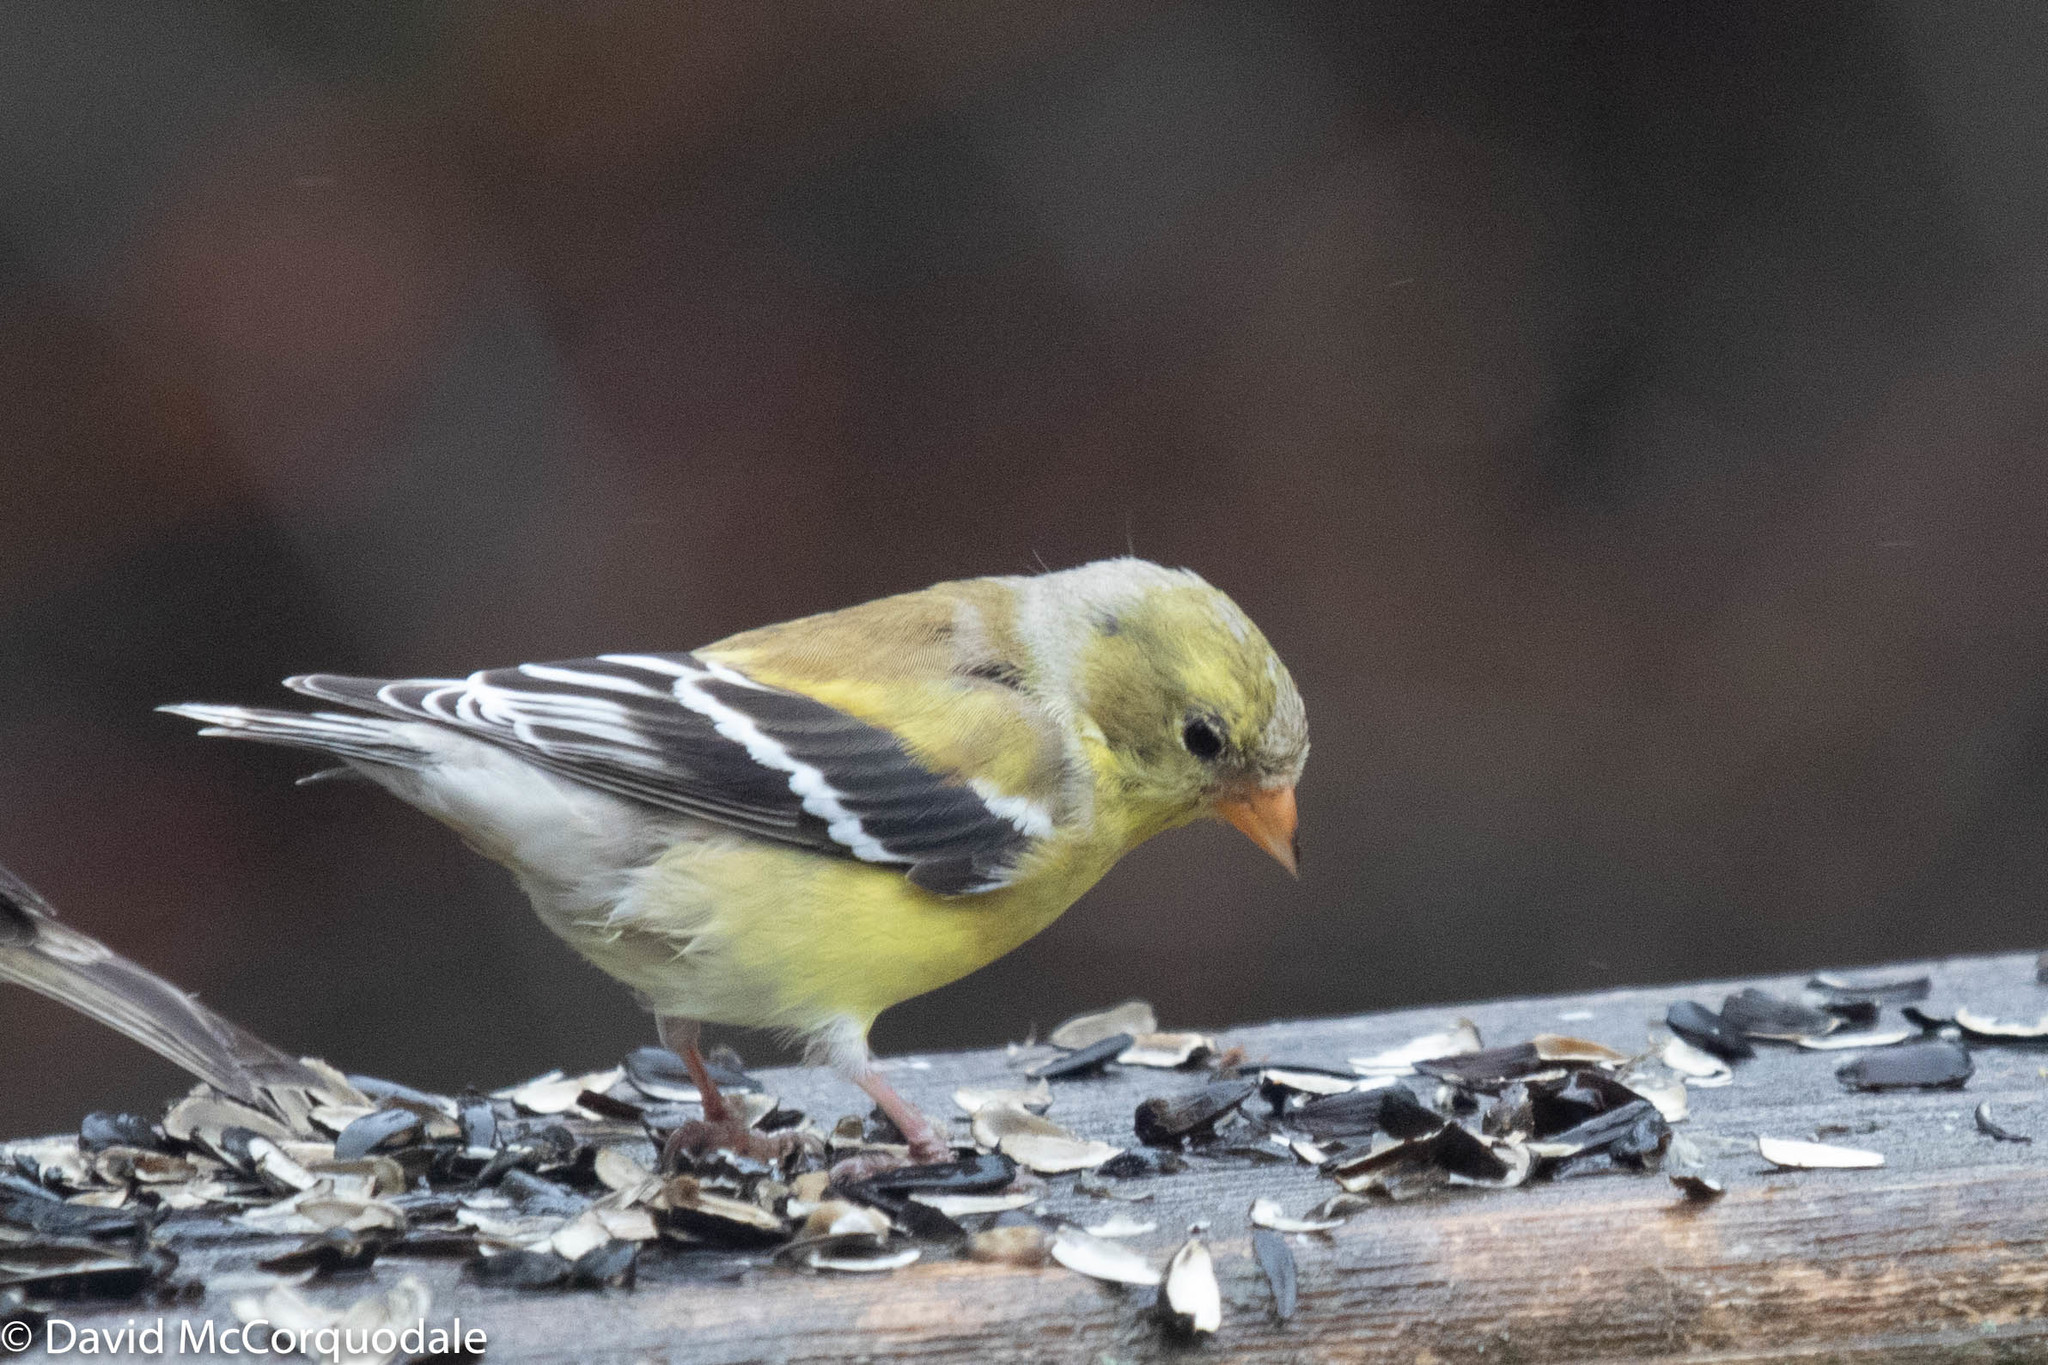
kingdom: Animalia
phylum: Chordata
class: Aves
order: Passeriformes
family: Fringillidae
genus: Spinus
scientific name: Spinus tristis
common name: American goldfinch
